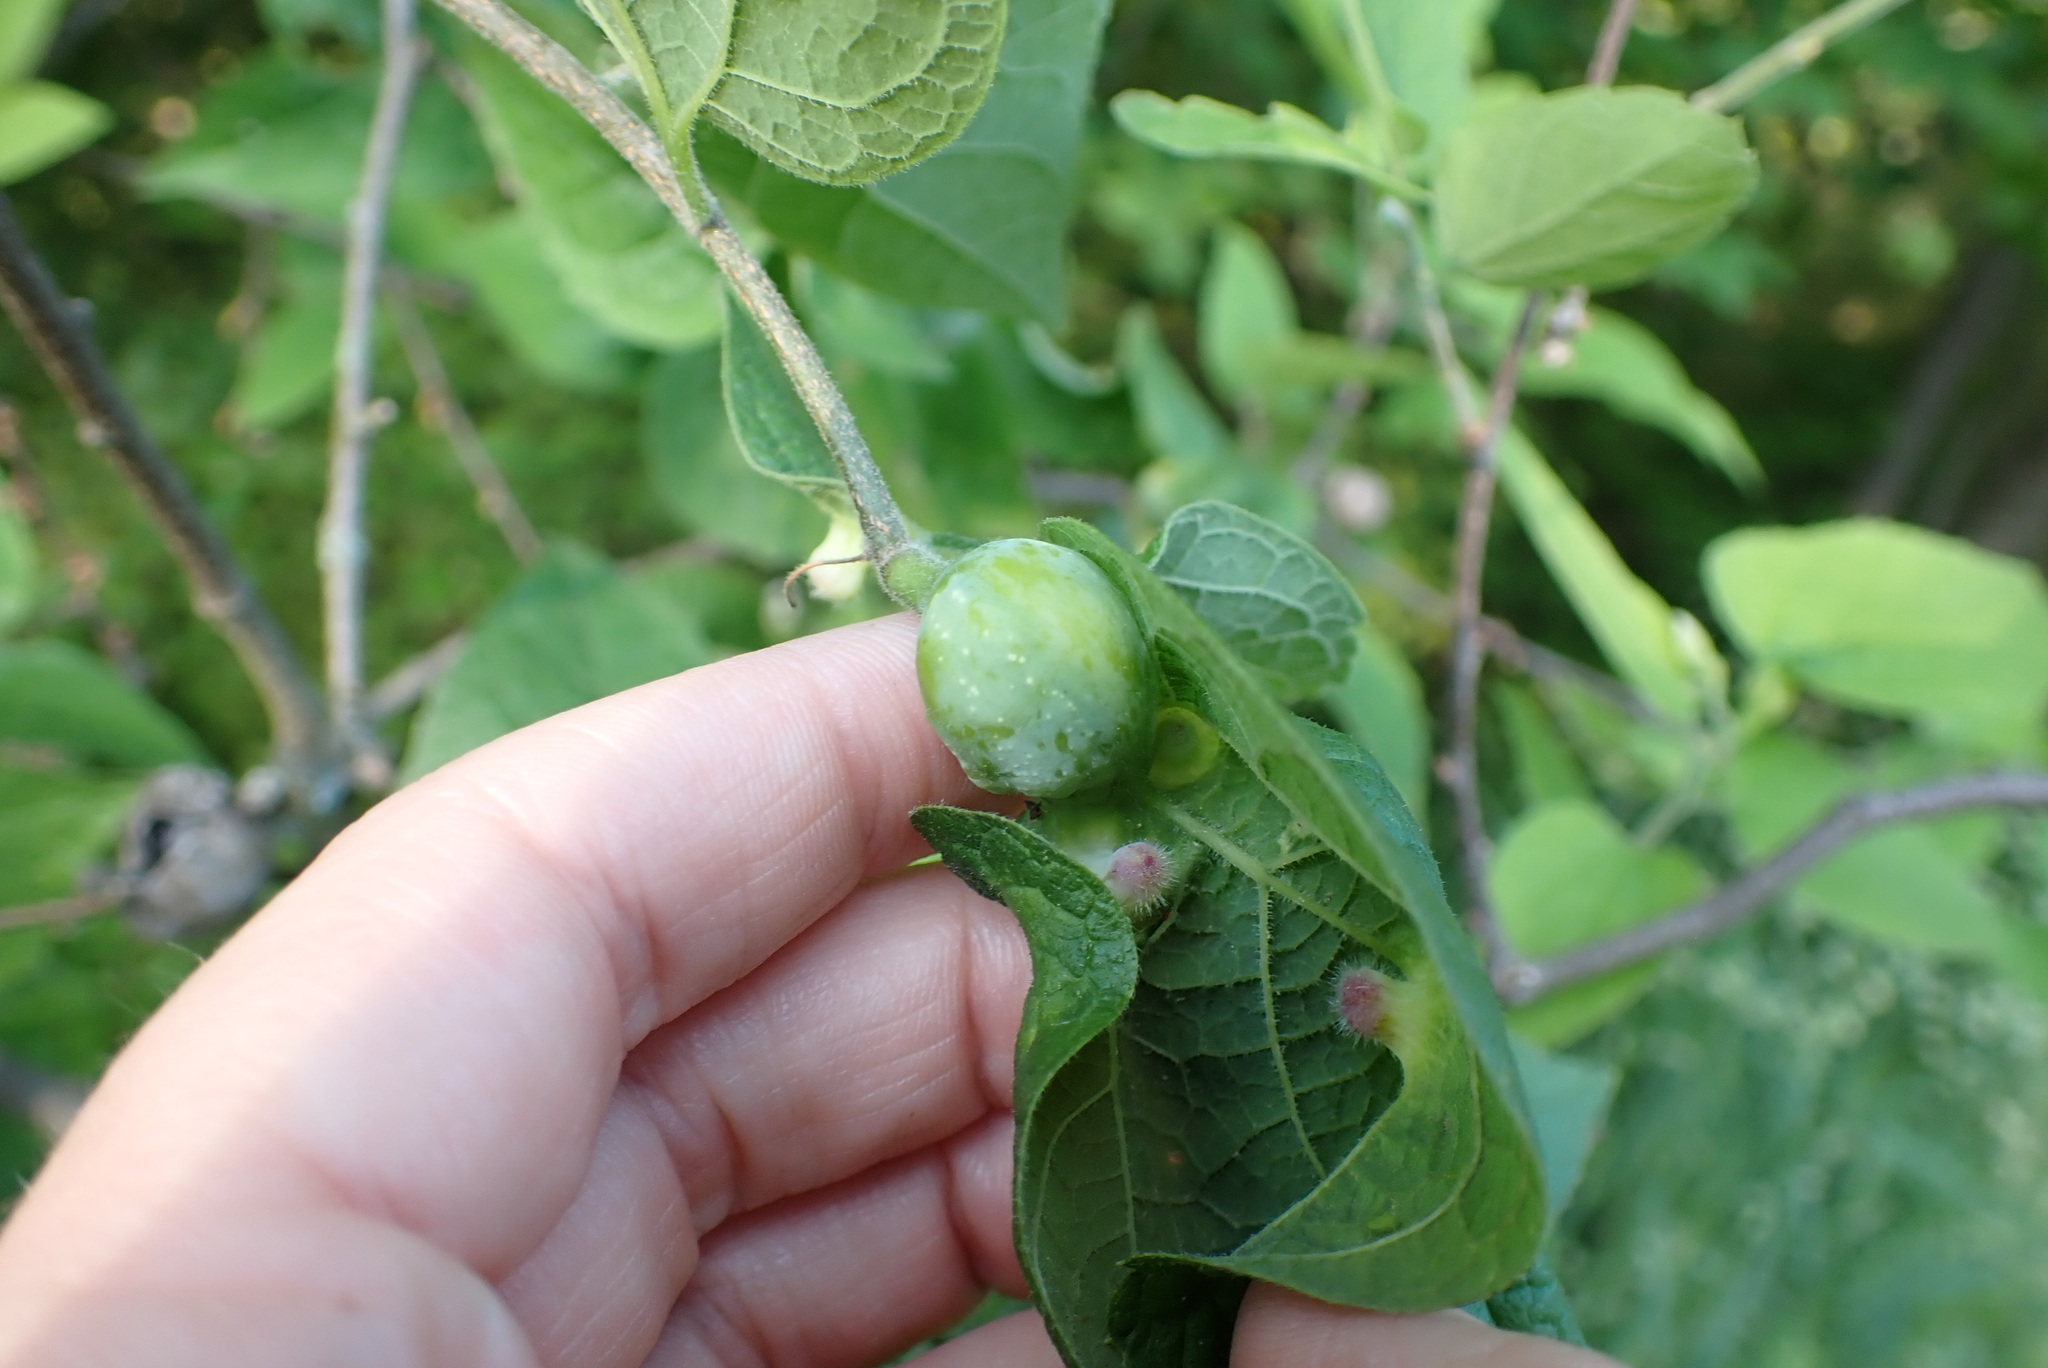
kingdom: Animalia
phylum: Arthropoda
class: Insecta
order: Hemiptera
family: Aphalaridae
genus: Pachypsylla
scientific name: Pachypsylla venusta
